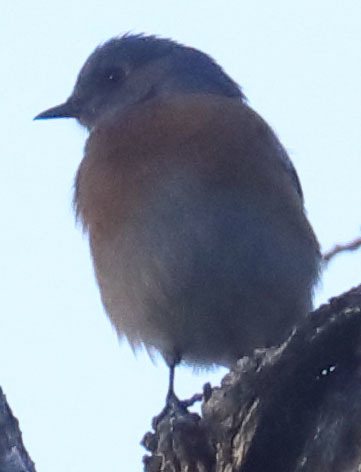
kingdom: Animalia
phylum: Chordata
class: Aves
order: Passeriformes
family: Turdidae
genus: Sialia
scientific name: Sialia mexicana
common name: Western bluebird
